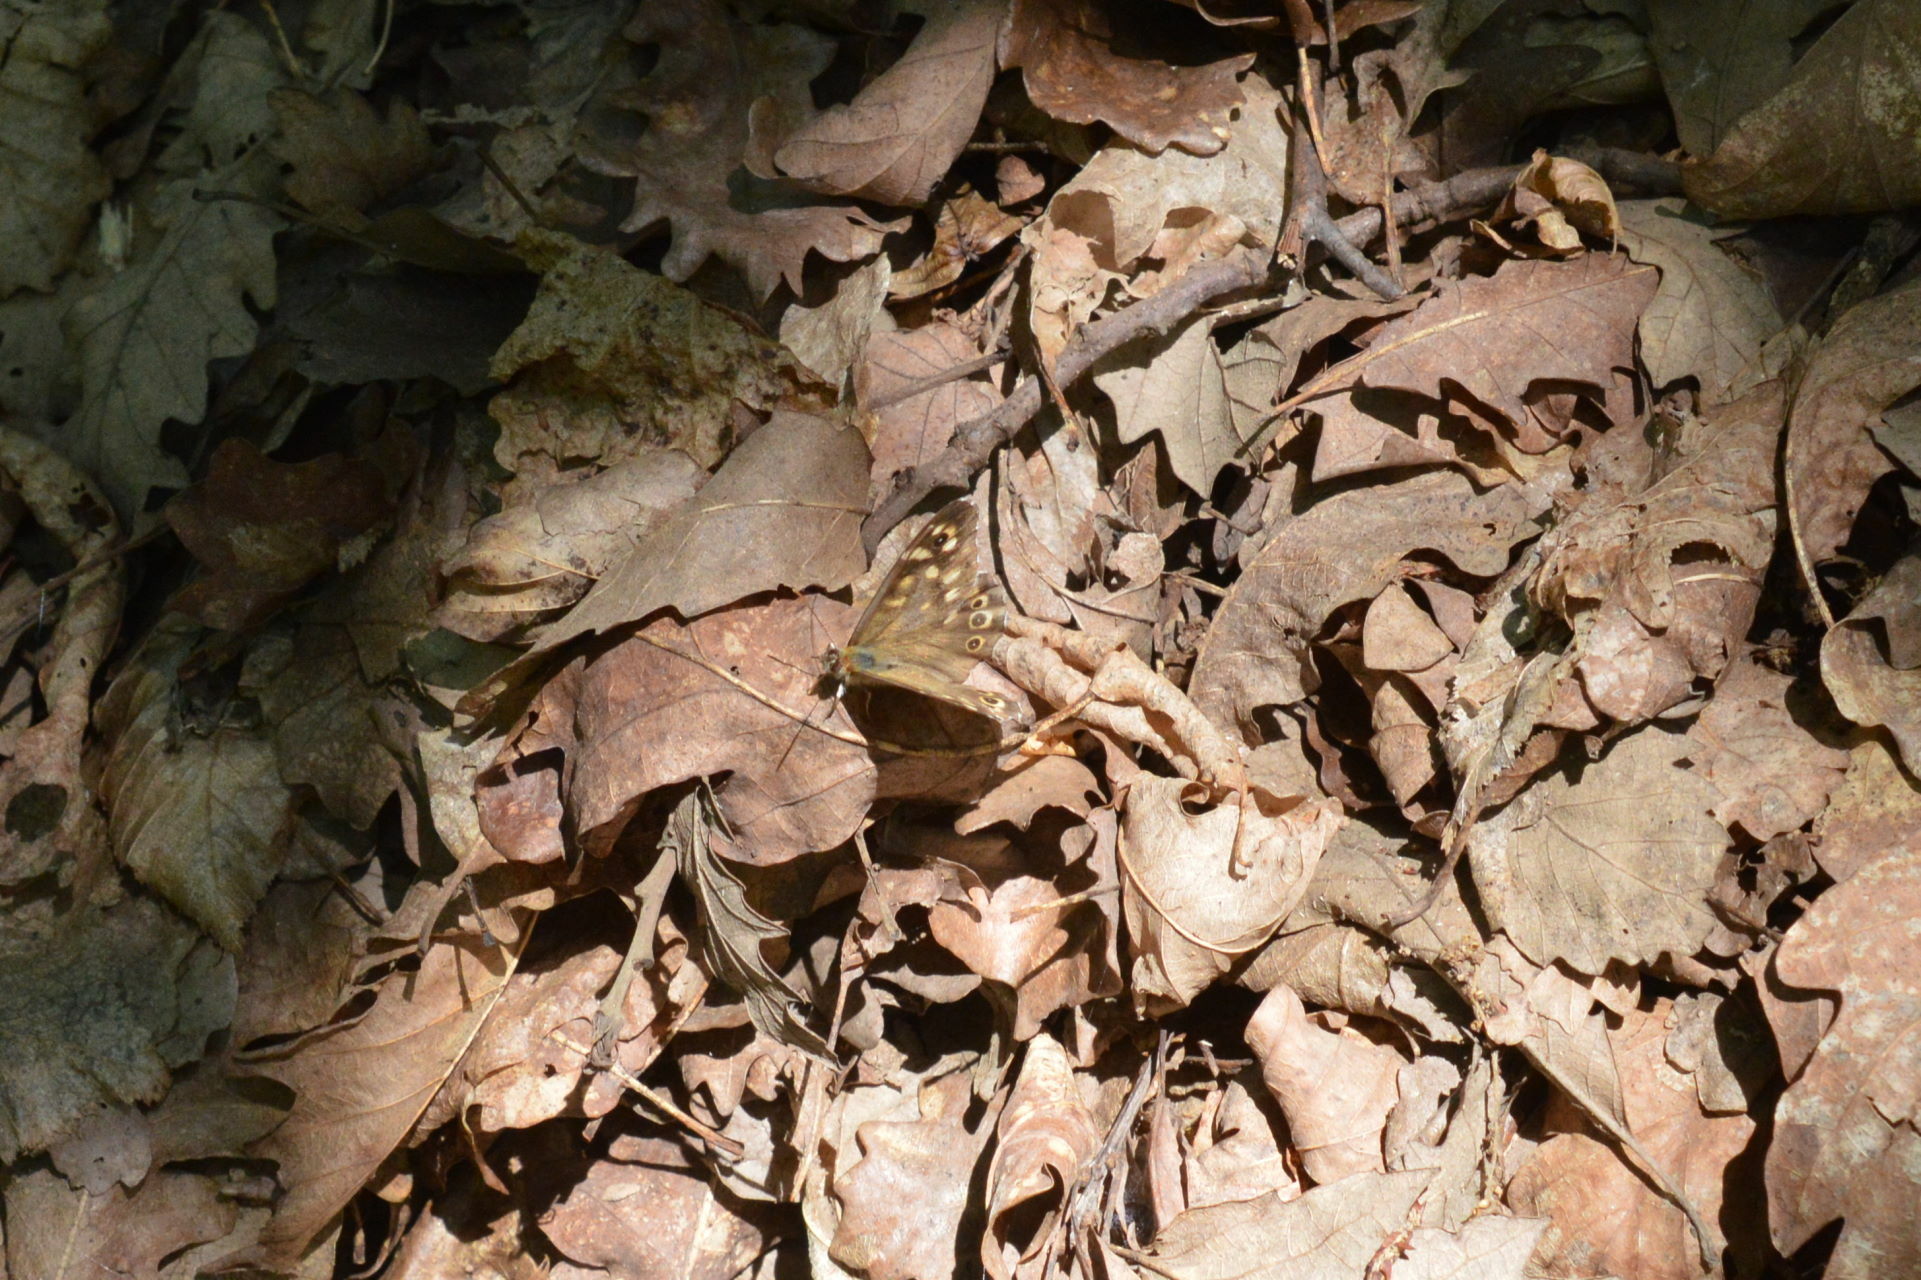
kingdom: Animalia
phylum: Arthropoda
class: Insecta
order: Lepidoptera
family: Nymphalidae
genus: Pararge
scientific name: Pararge aegeria
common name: Speckled wood
